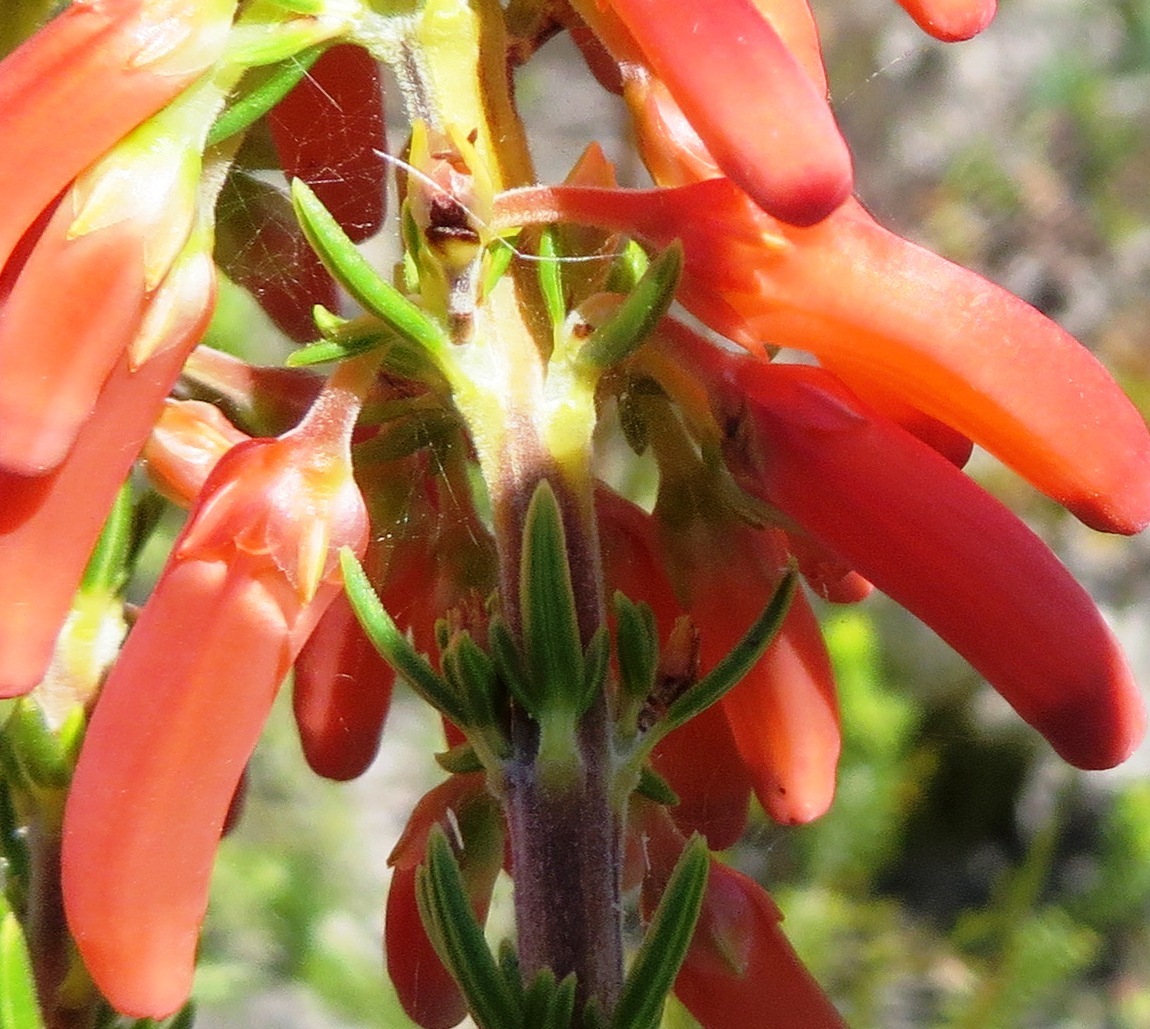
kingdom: Plantae
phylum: Tracheophyta
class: Magnoliopsida
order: Ericales
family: Ericaceae
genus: Erica
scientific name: Erica mammosa
